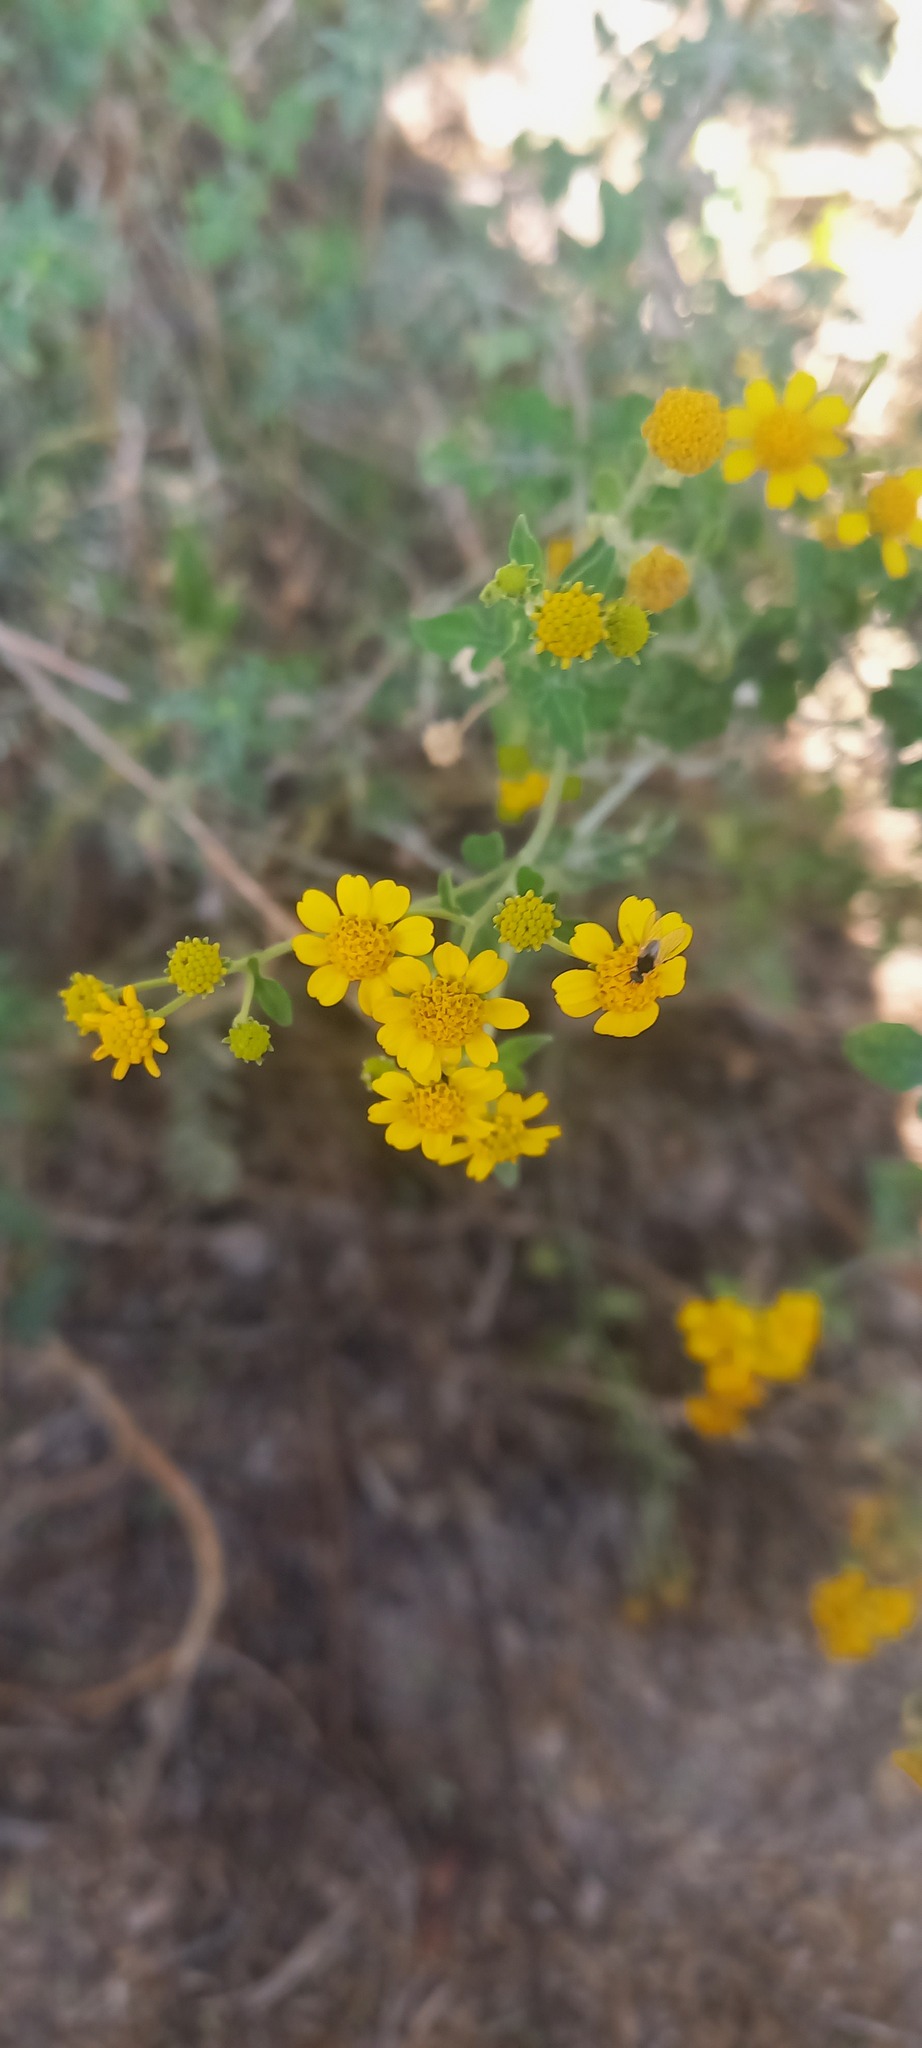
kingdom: Plantae
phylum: Tracheophyta
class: Magnoliopsida
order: Asterales
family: Asteraceae
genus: Zaluzania
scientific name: Zaluzania parthenioides
